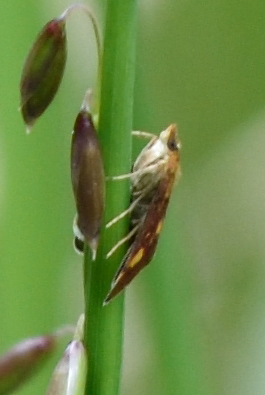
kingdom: Animalia
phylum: Arthropoda
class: Insecta
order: Lepidoptera
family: Crambidae
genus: Pyrausta
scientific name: Pyrausta aurata
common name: Small purple & gold
